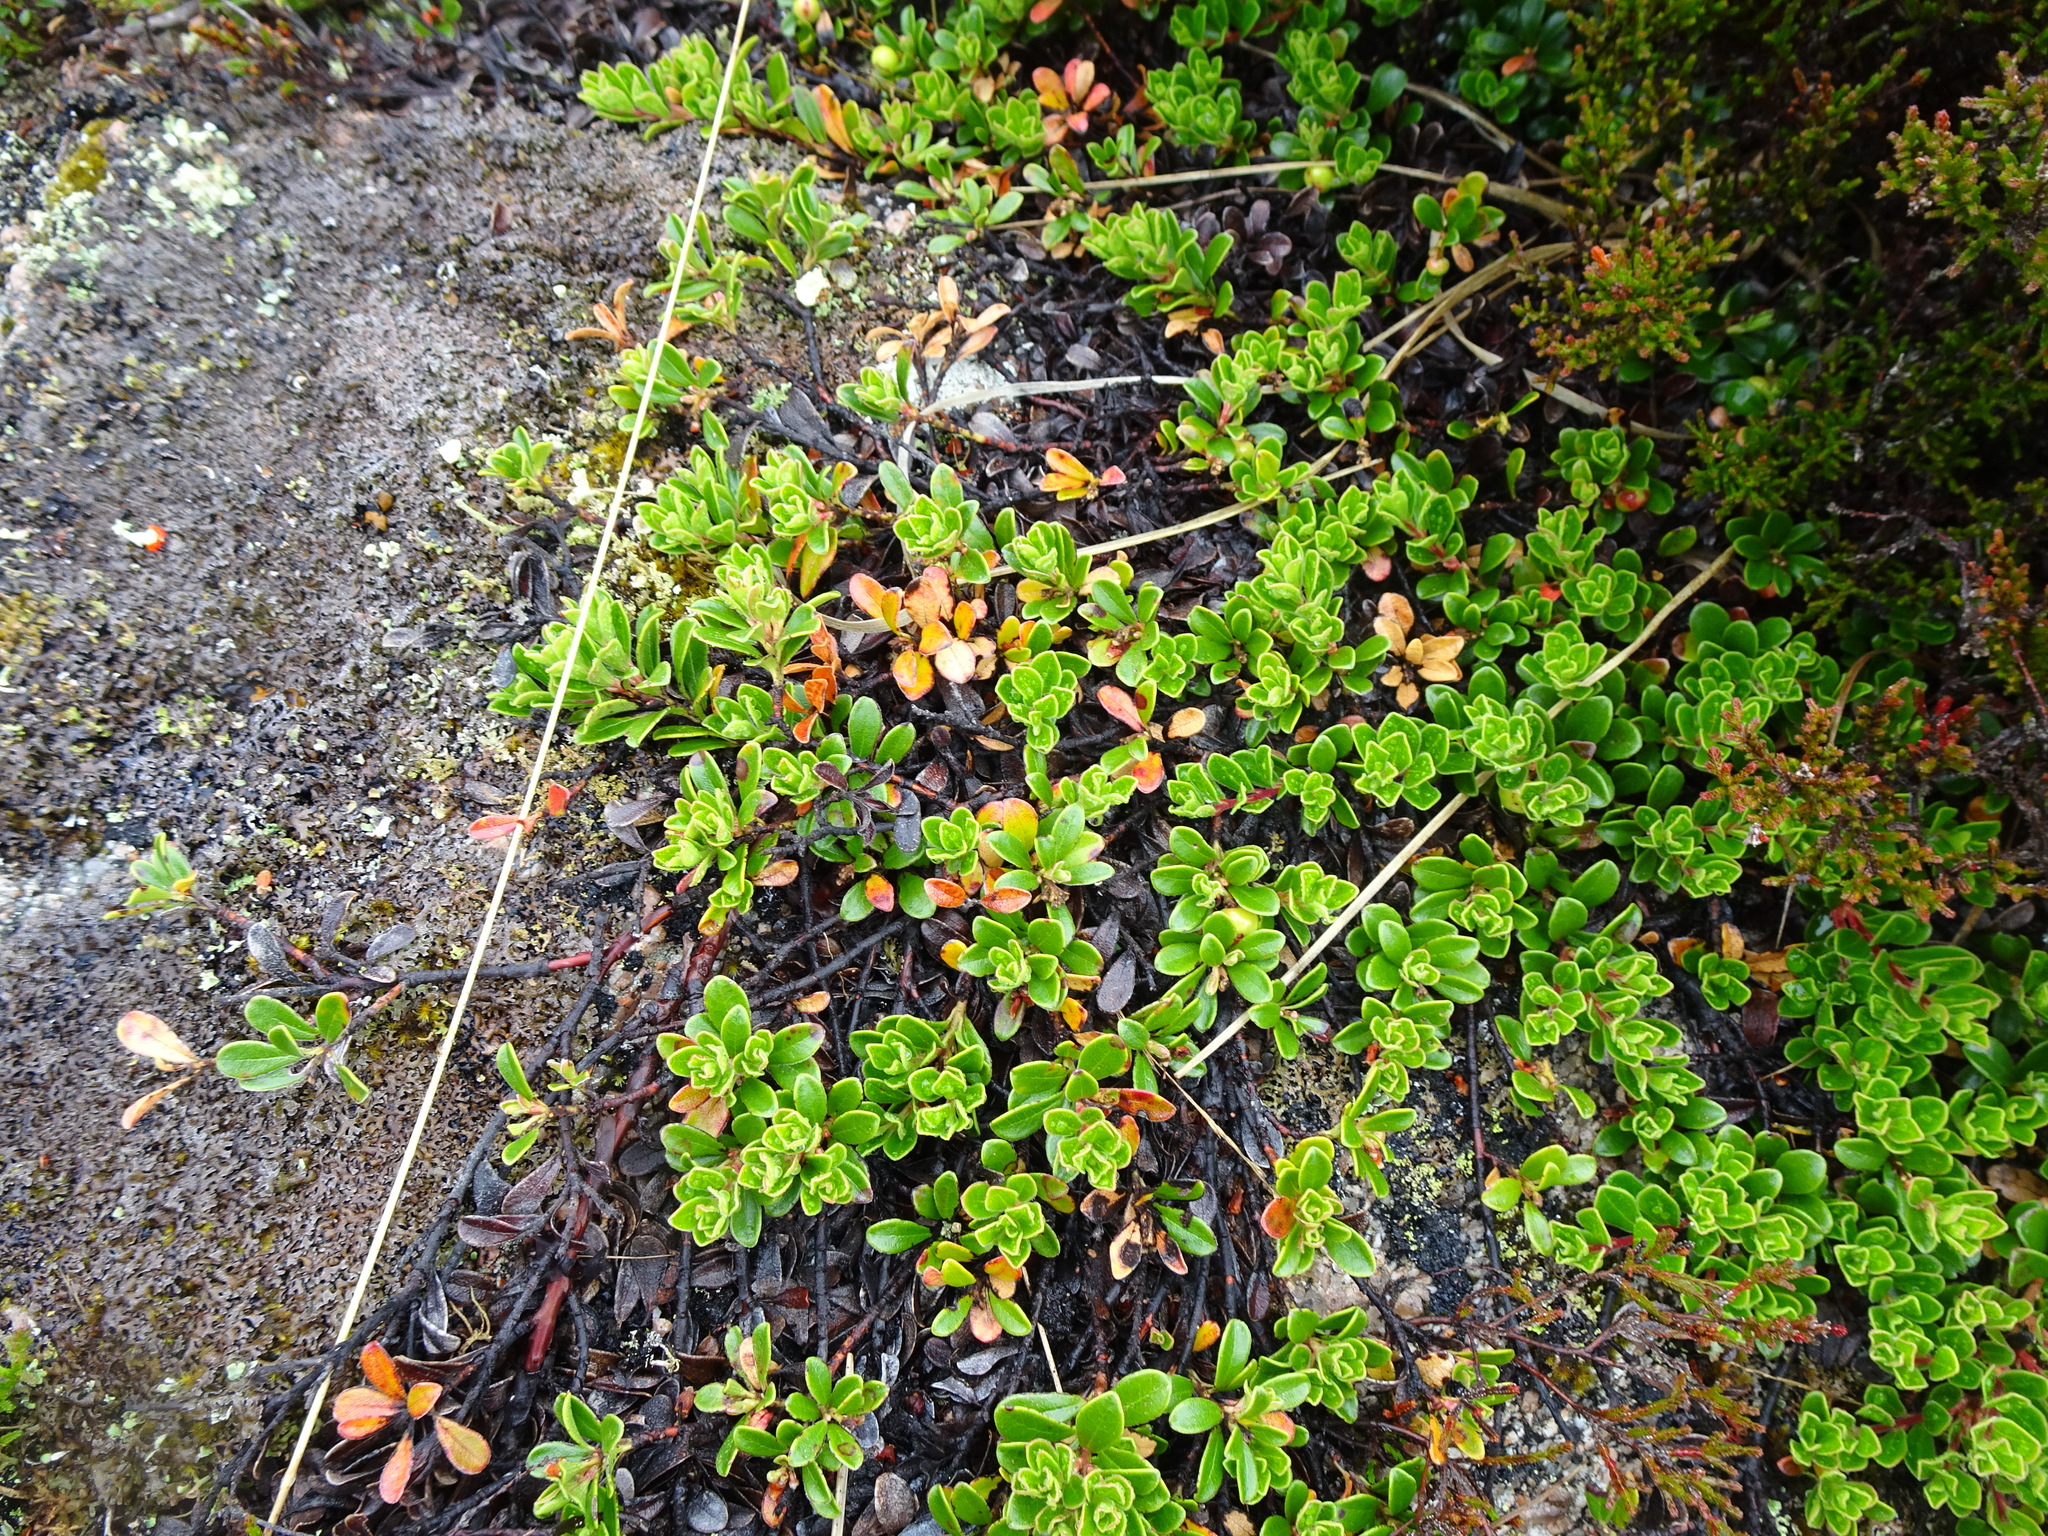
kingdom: Plantae
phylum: Tracheophyta
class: Magnoliopsida
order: Ericales
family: Ericaceae
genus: Arctostaphylos
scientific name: Arctostaphylos uva-ursi
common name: Bearberry
